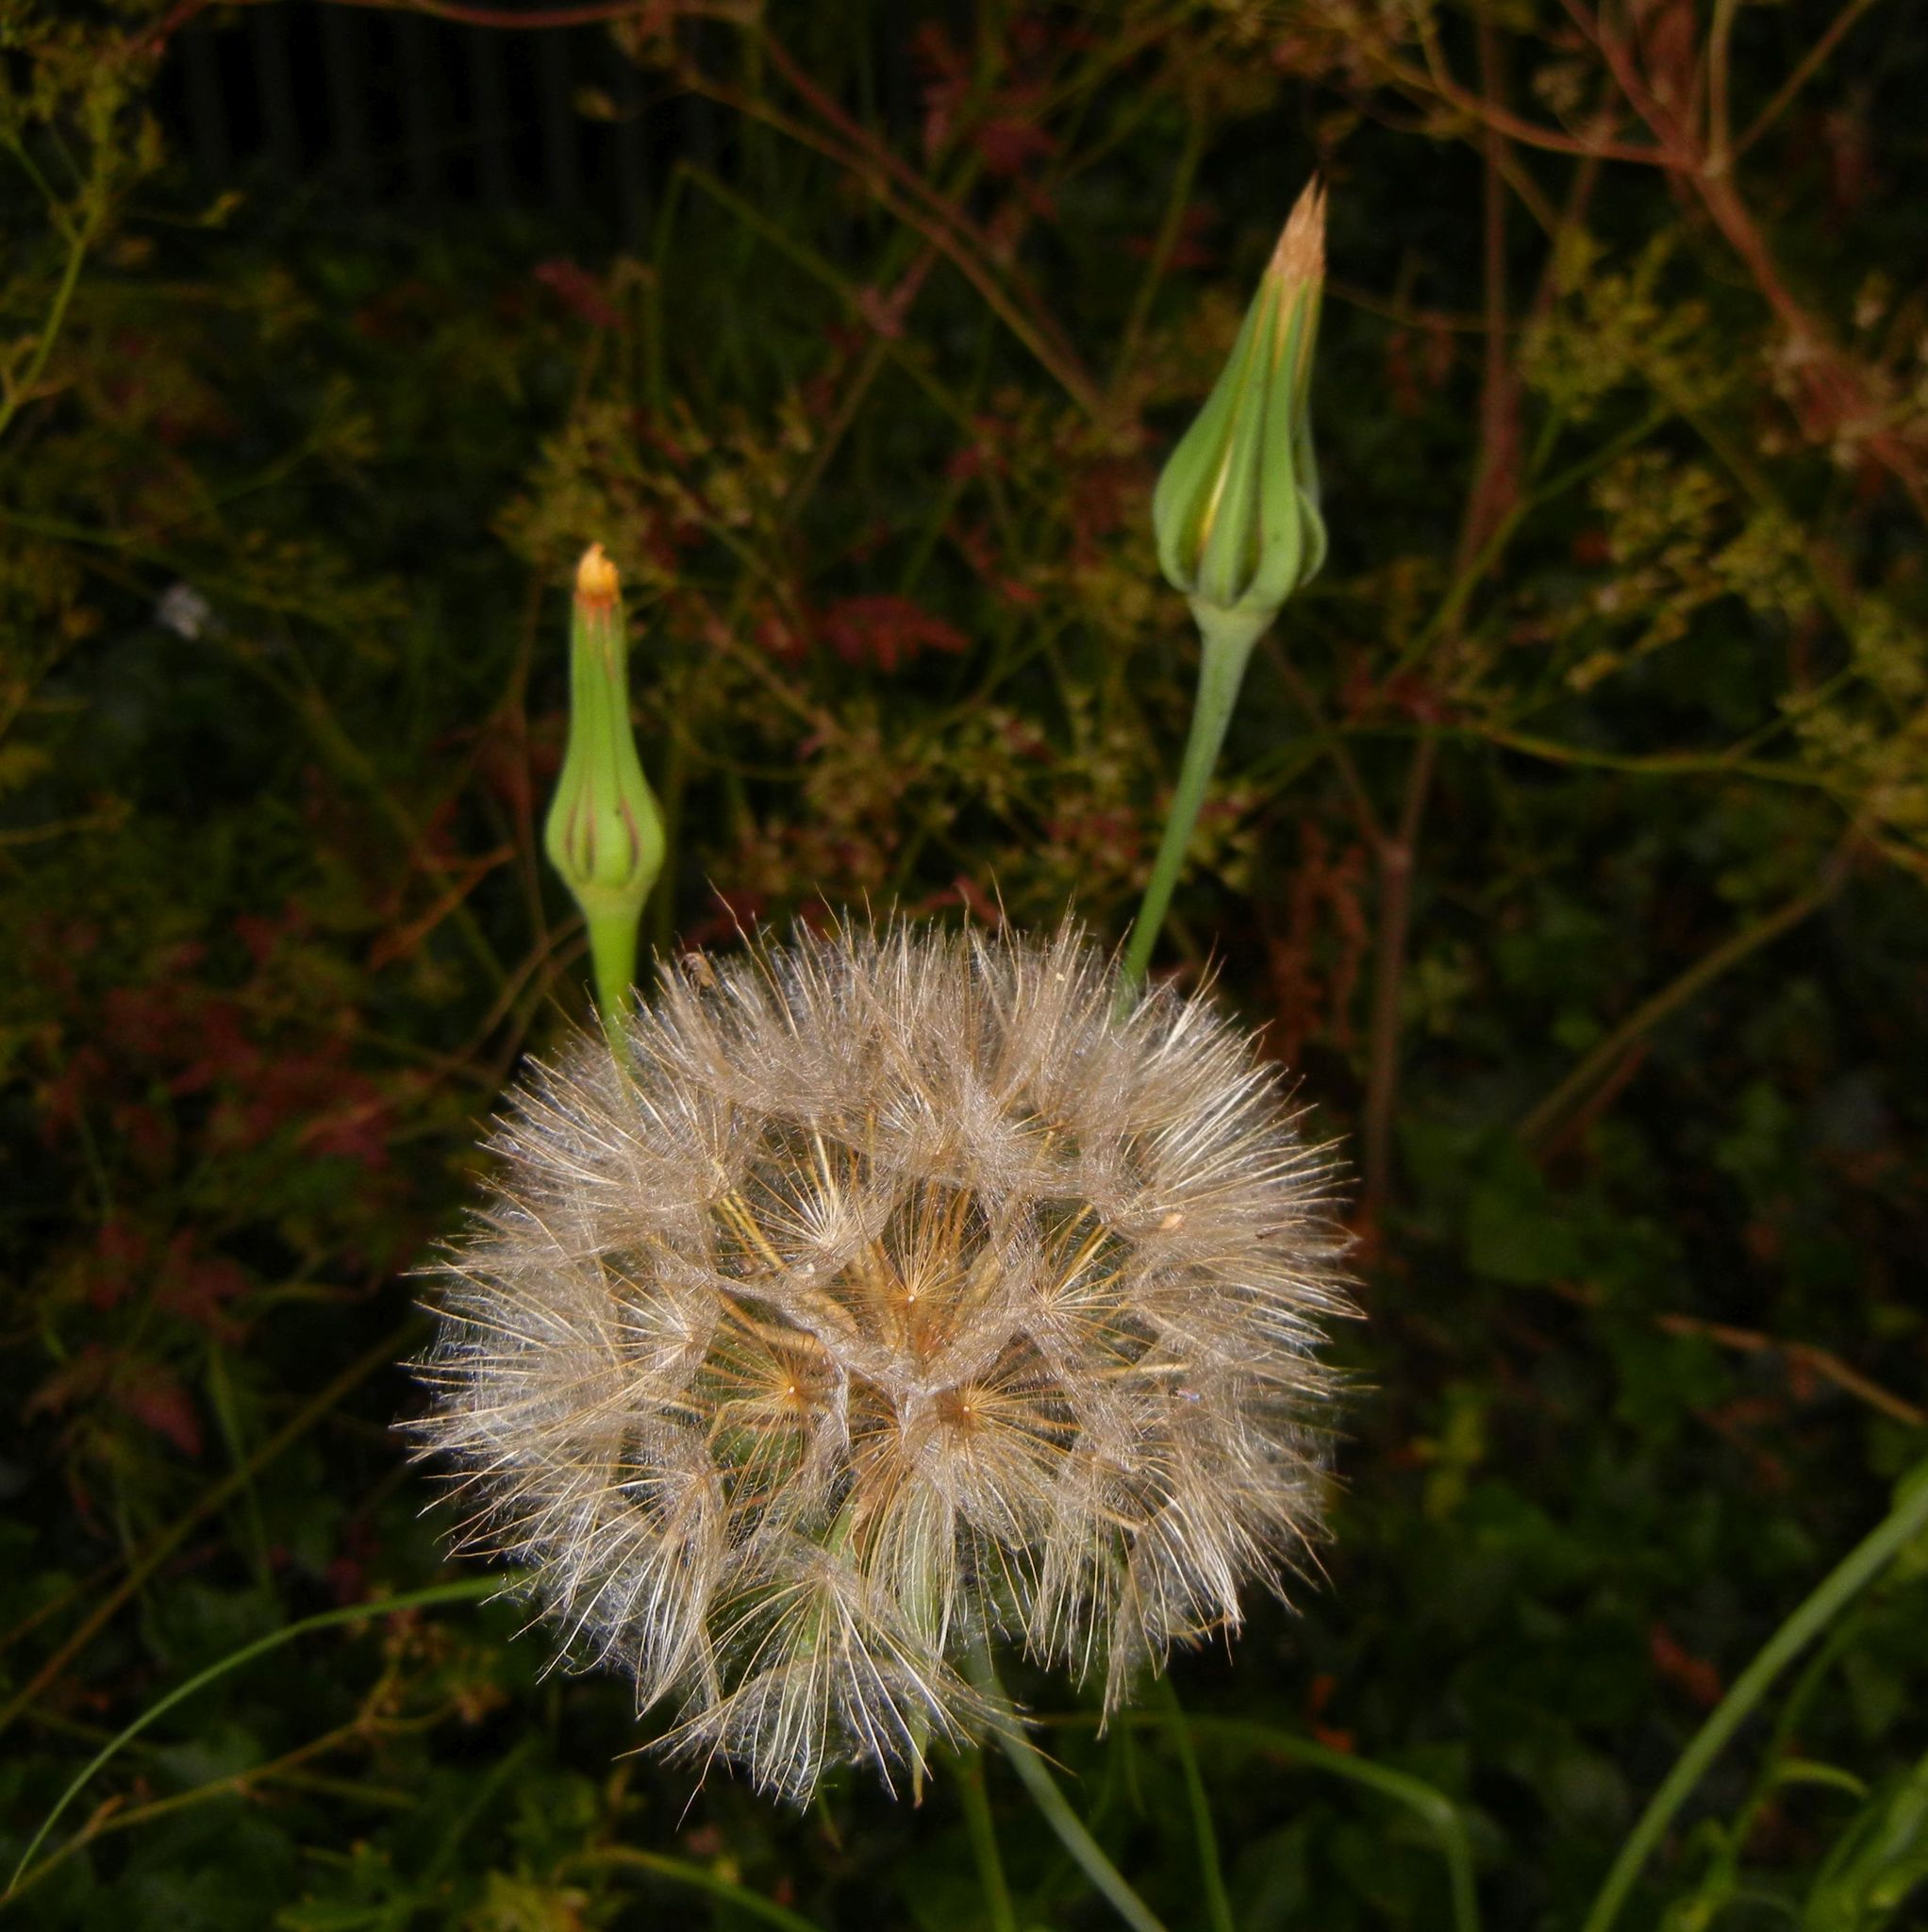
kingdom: Plantae
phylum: Tracheophyta
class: Magnoliopsida
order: Asterales
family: Asteraceae
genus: Tragopogon
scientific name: Tragopogon pratensis
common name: Goat's-beard
